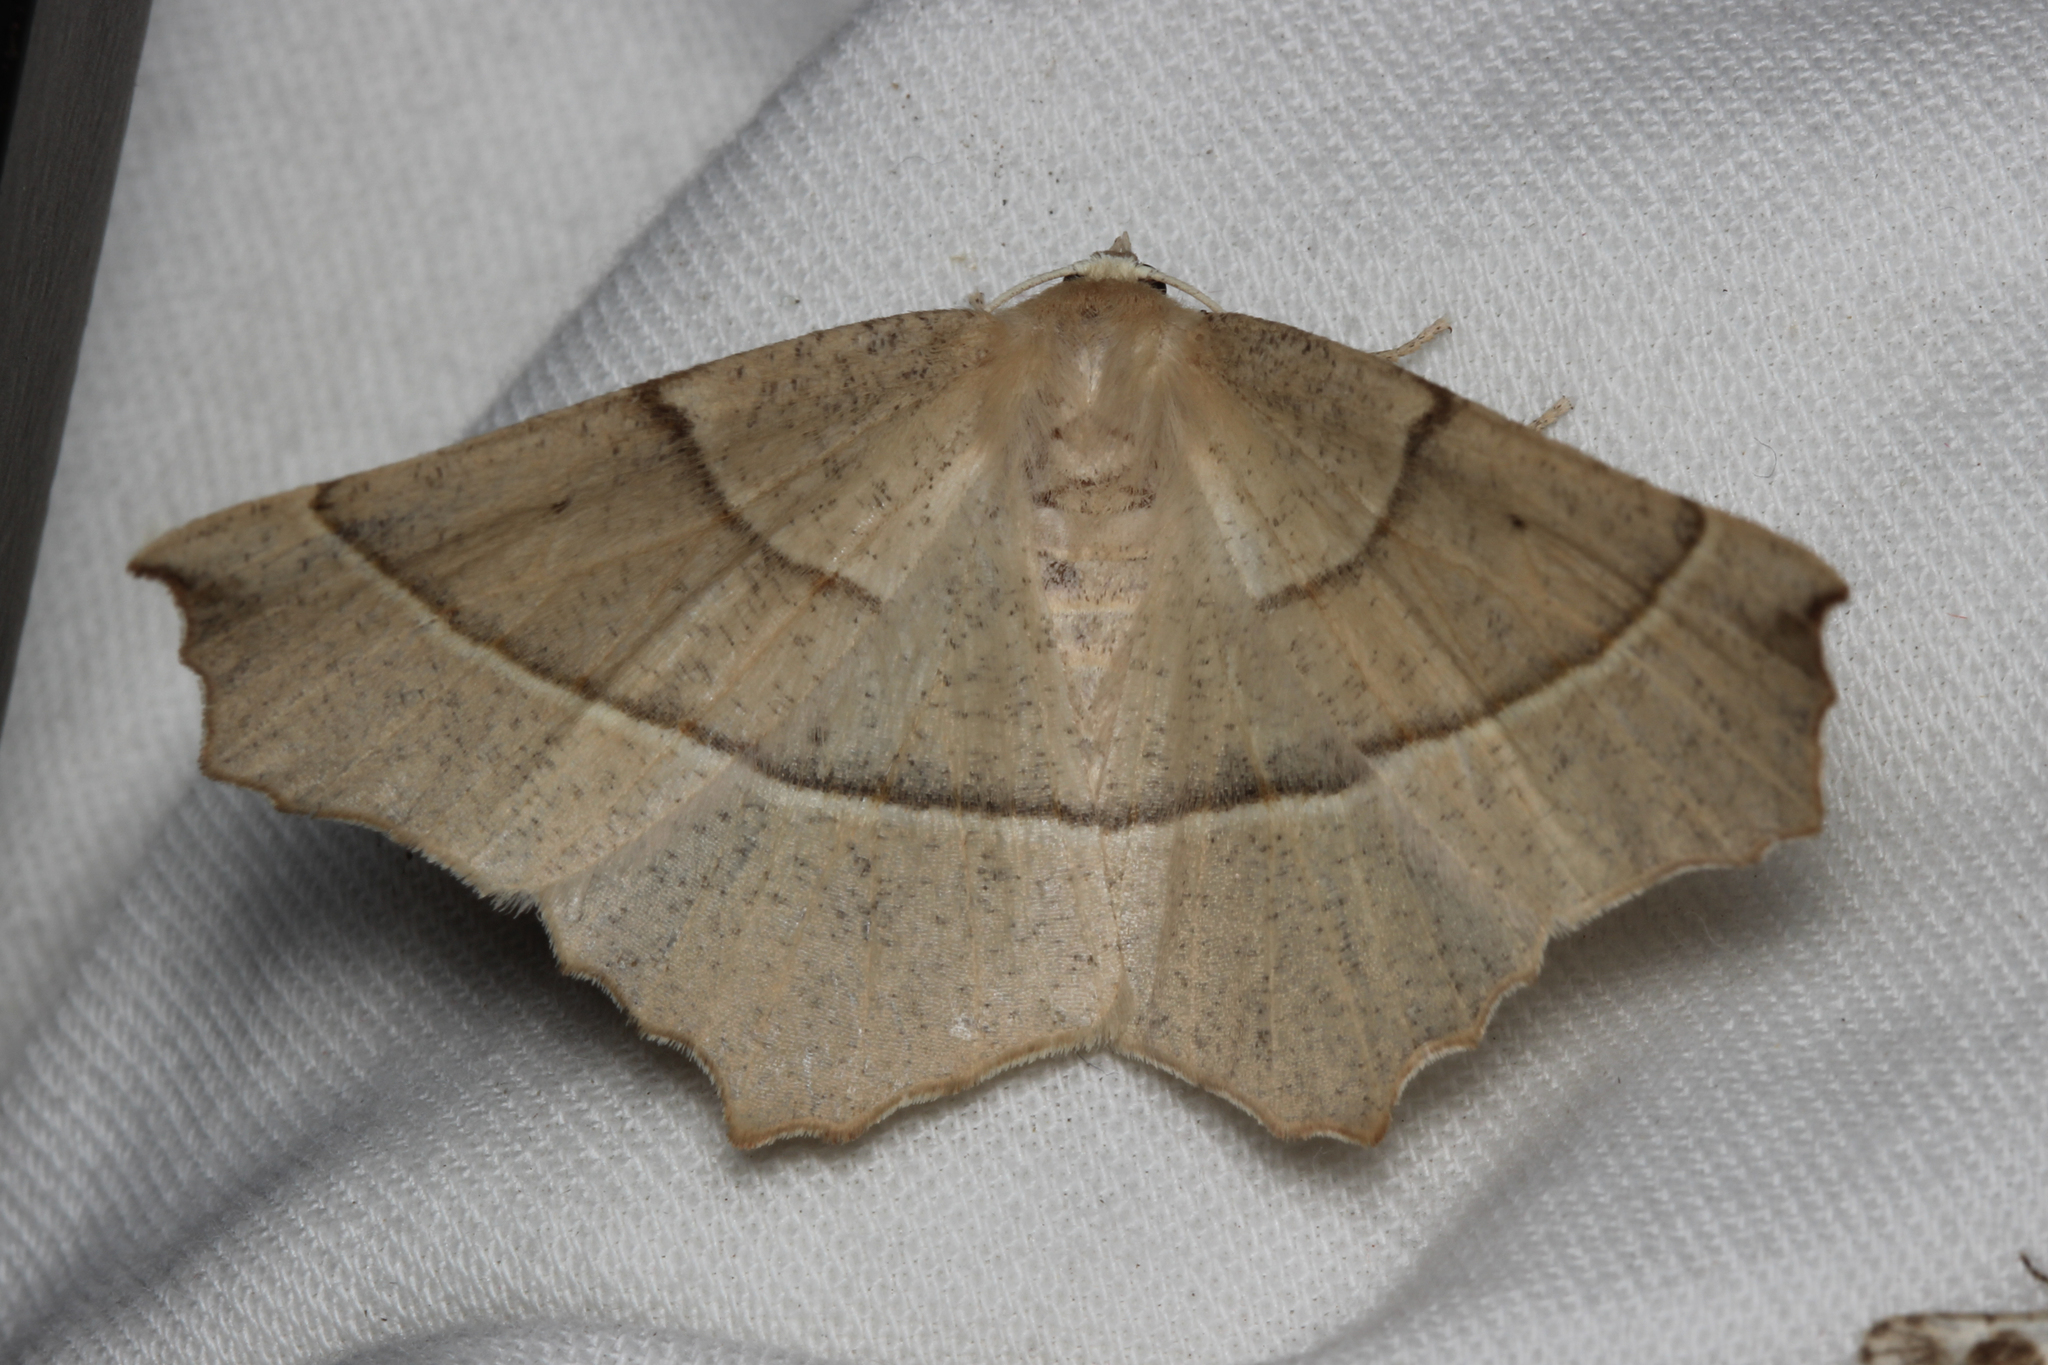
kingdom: Animalia
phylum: Arthropoda
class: Insecta
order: Lepidoptera
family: Geometridae
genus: Gerinia
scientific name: Gerinia honoraria
